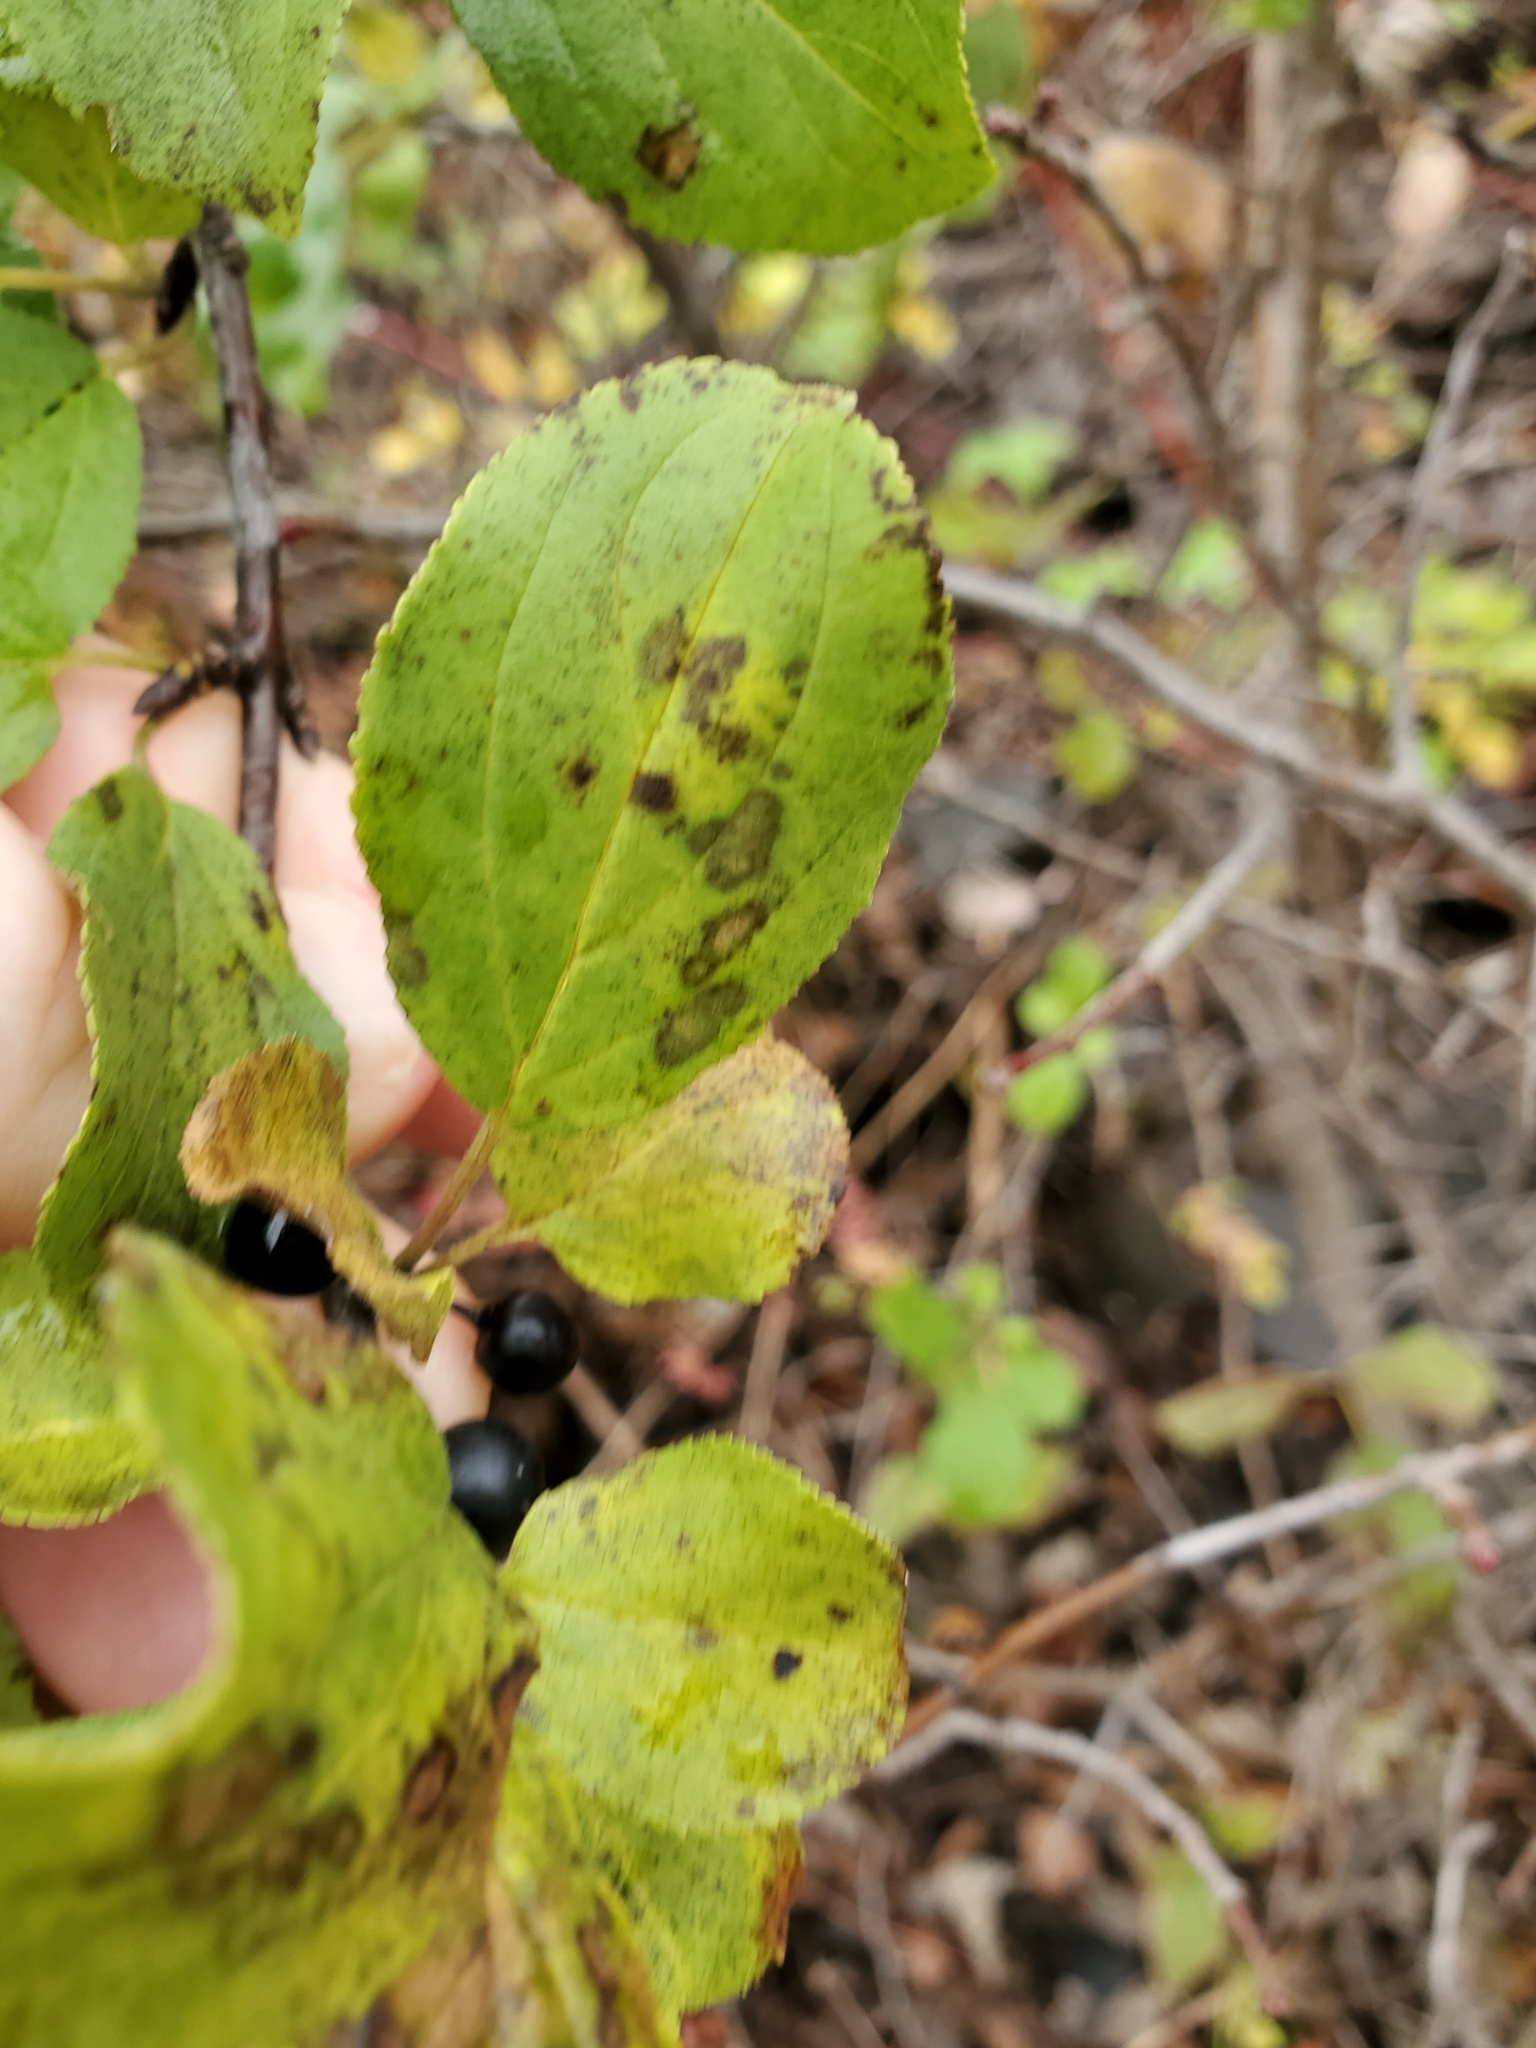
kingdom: Plantae
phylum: Tracheophyta
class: Magnoliopsida
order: Rosales
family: Rhamnaceae
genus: Rhamnus
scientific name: Rhamnus cathartica
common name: Common buckthorn
